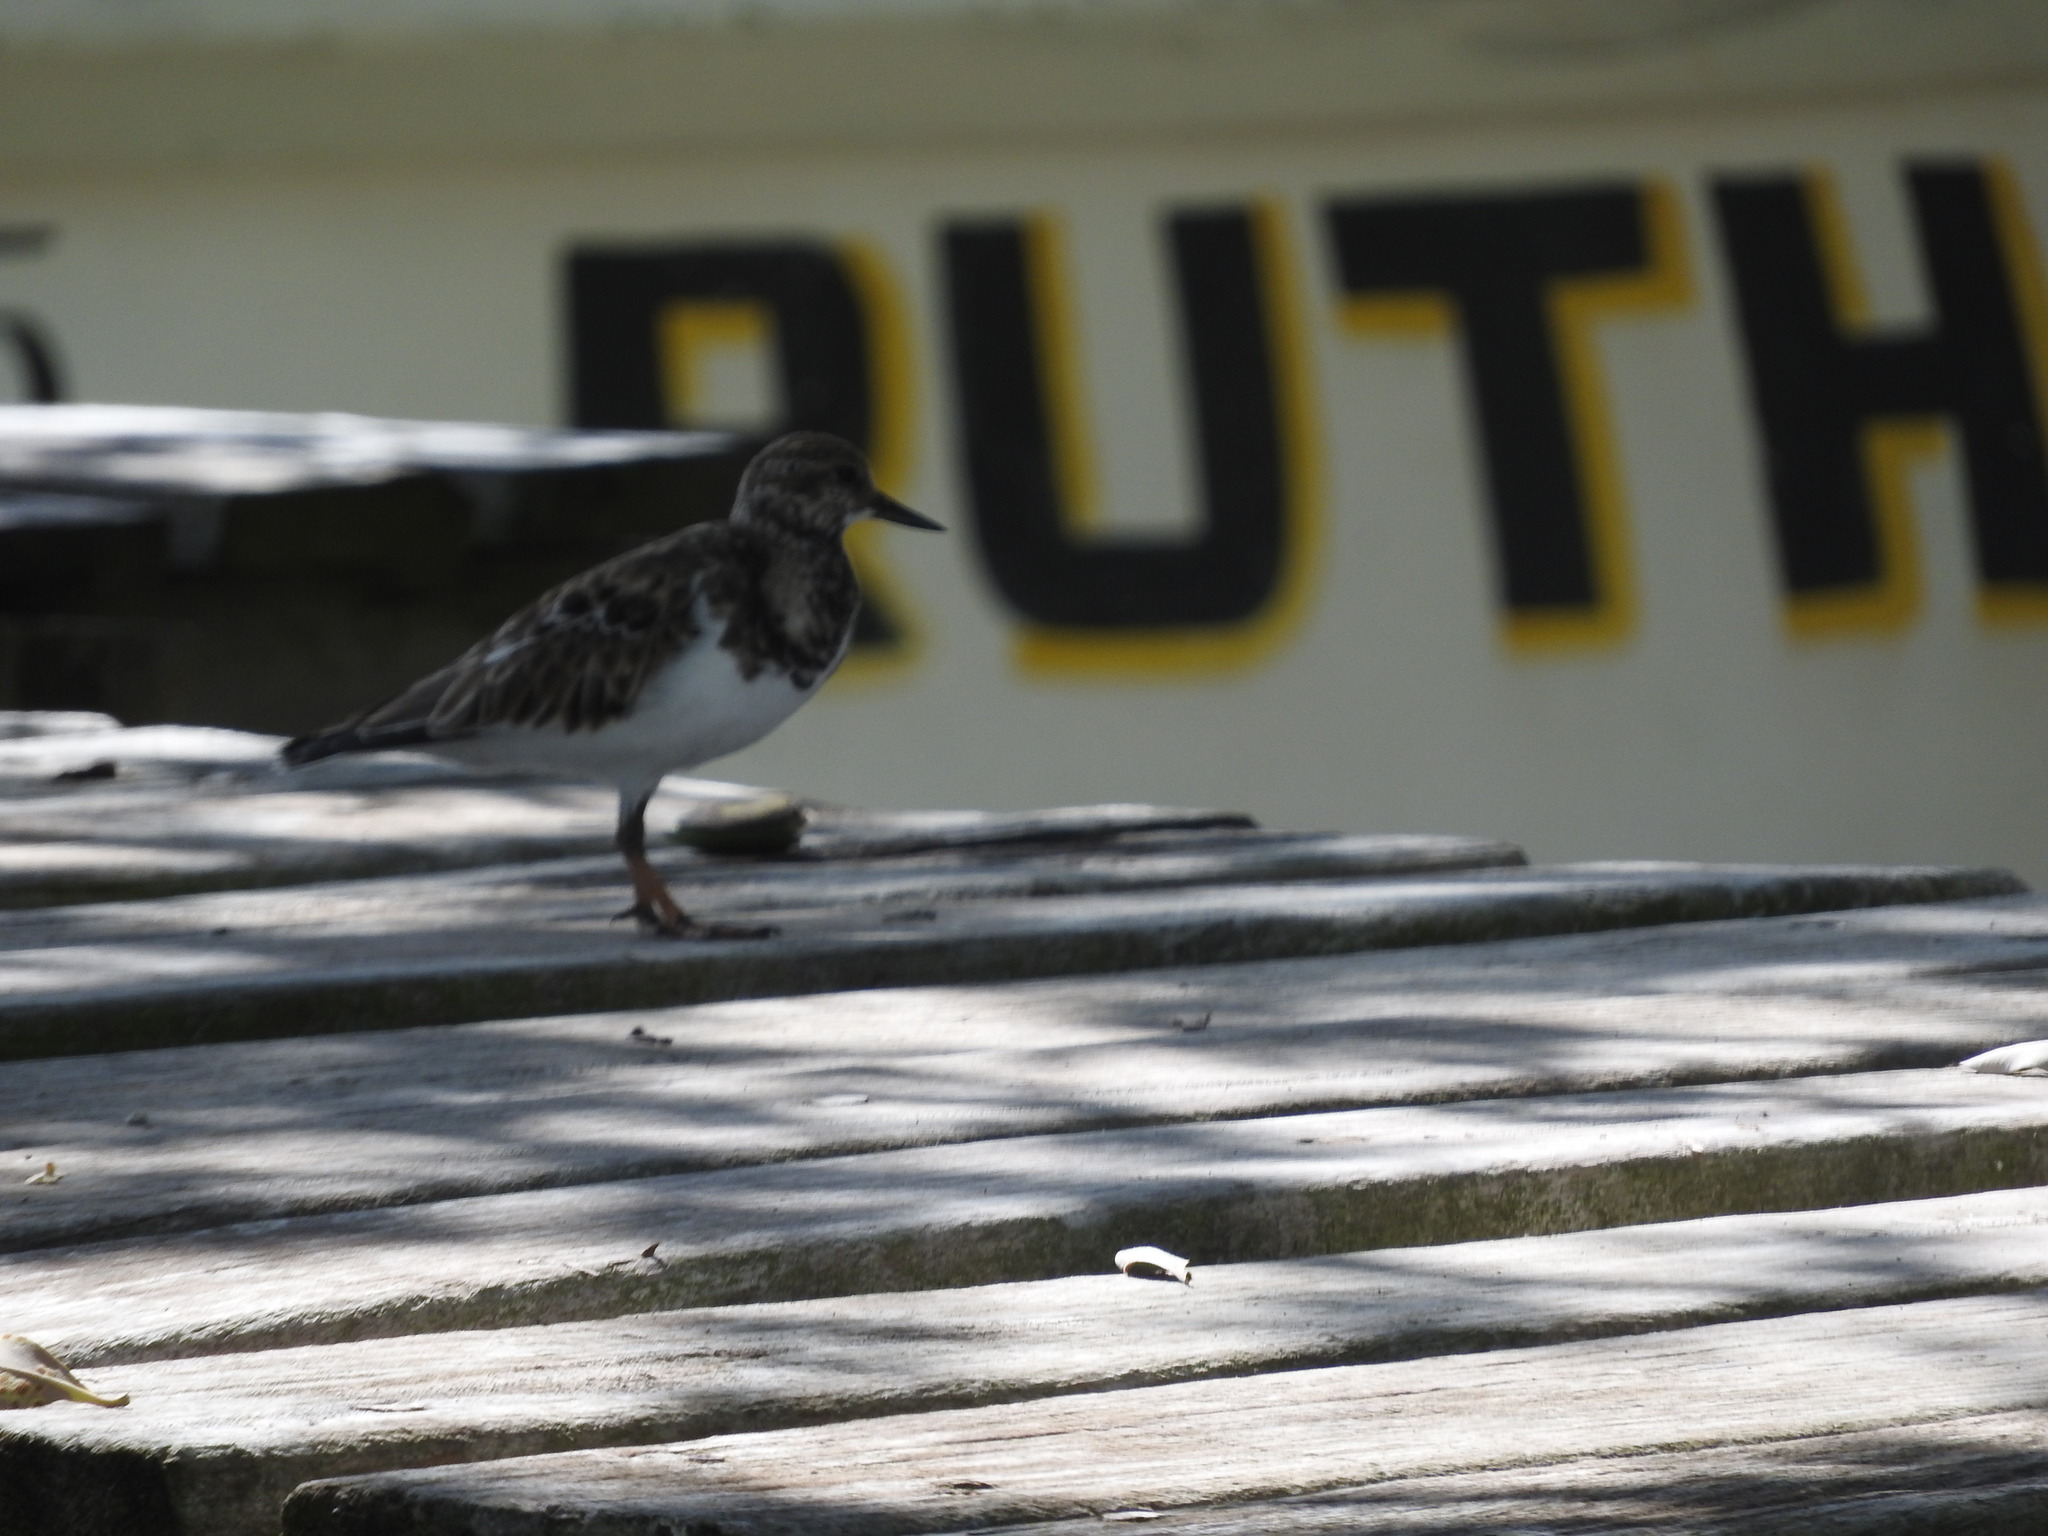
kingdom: Animalia
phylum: Chordata
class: Aves
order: Charadriiformes
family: Scolopacidae
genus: Arenaria
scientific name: Arenaria interpres
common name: Ruddy turnstone
